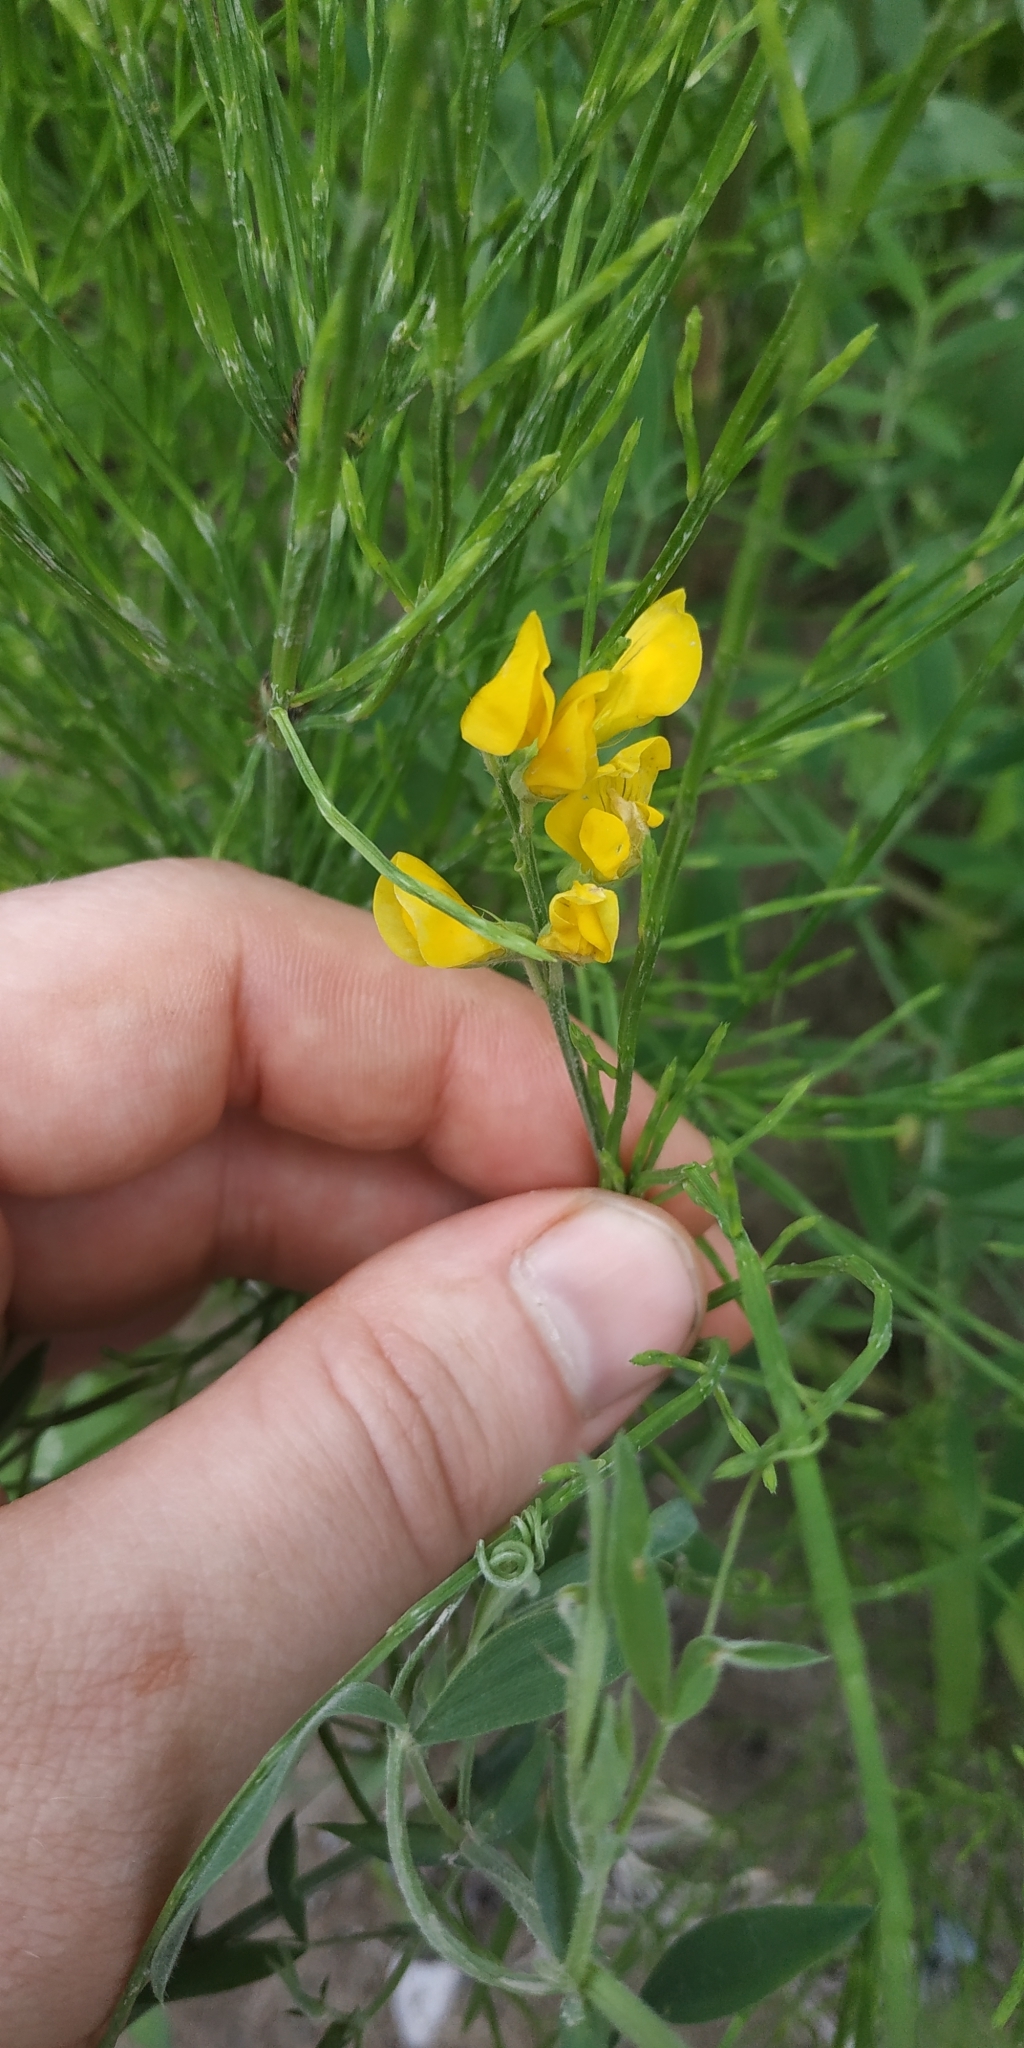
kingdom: Plantae
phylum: Tracheophyta
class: Magnoliopsida
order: Fabales
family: Fabaceae
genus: Lathyrus
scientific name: Lathyrus pratensis
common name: Meadow vetchling
